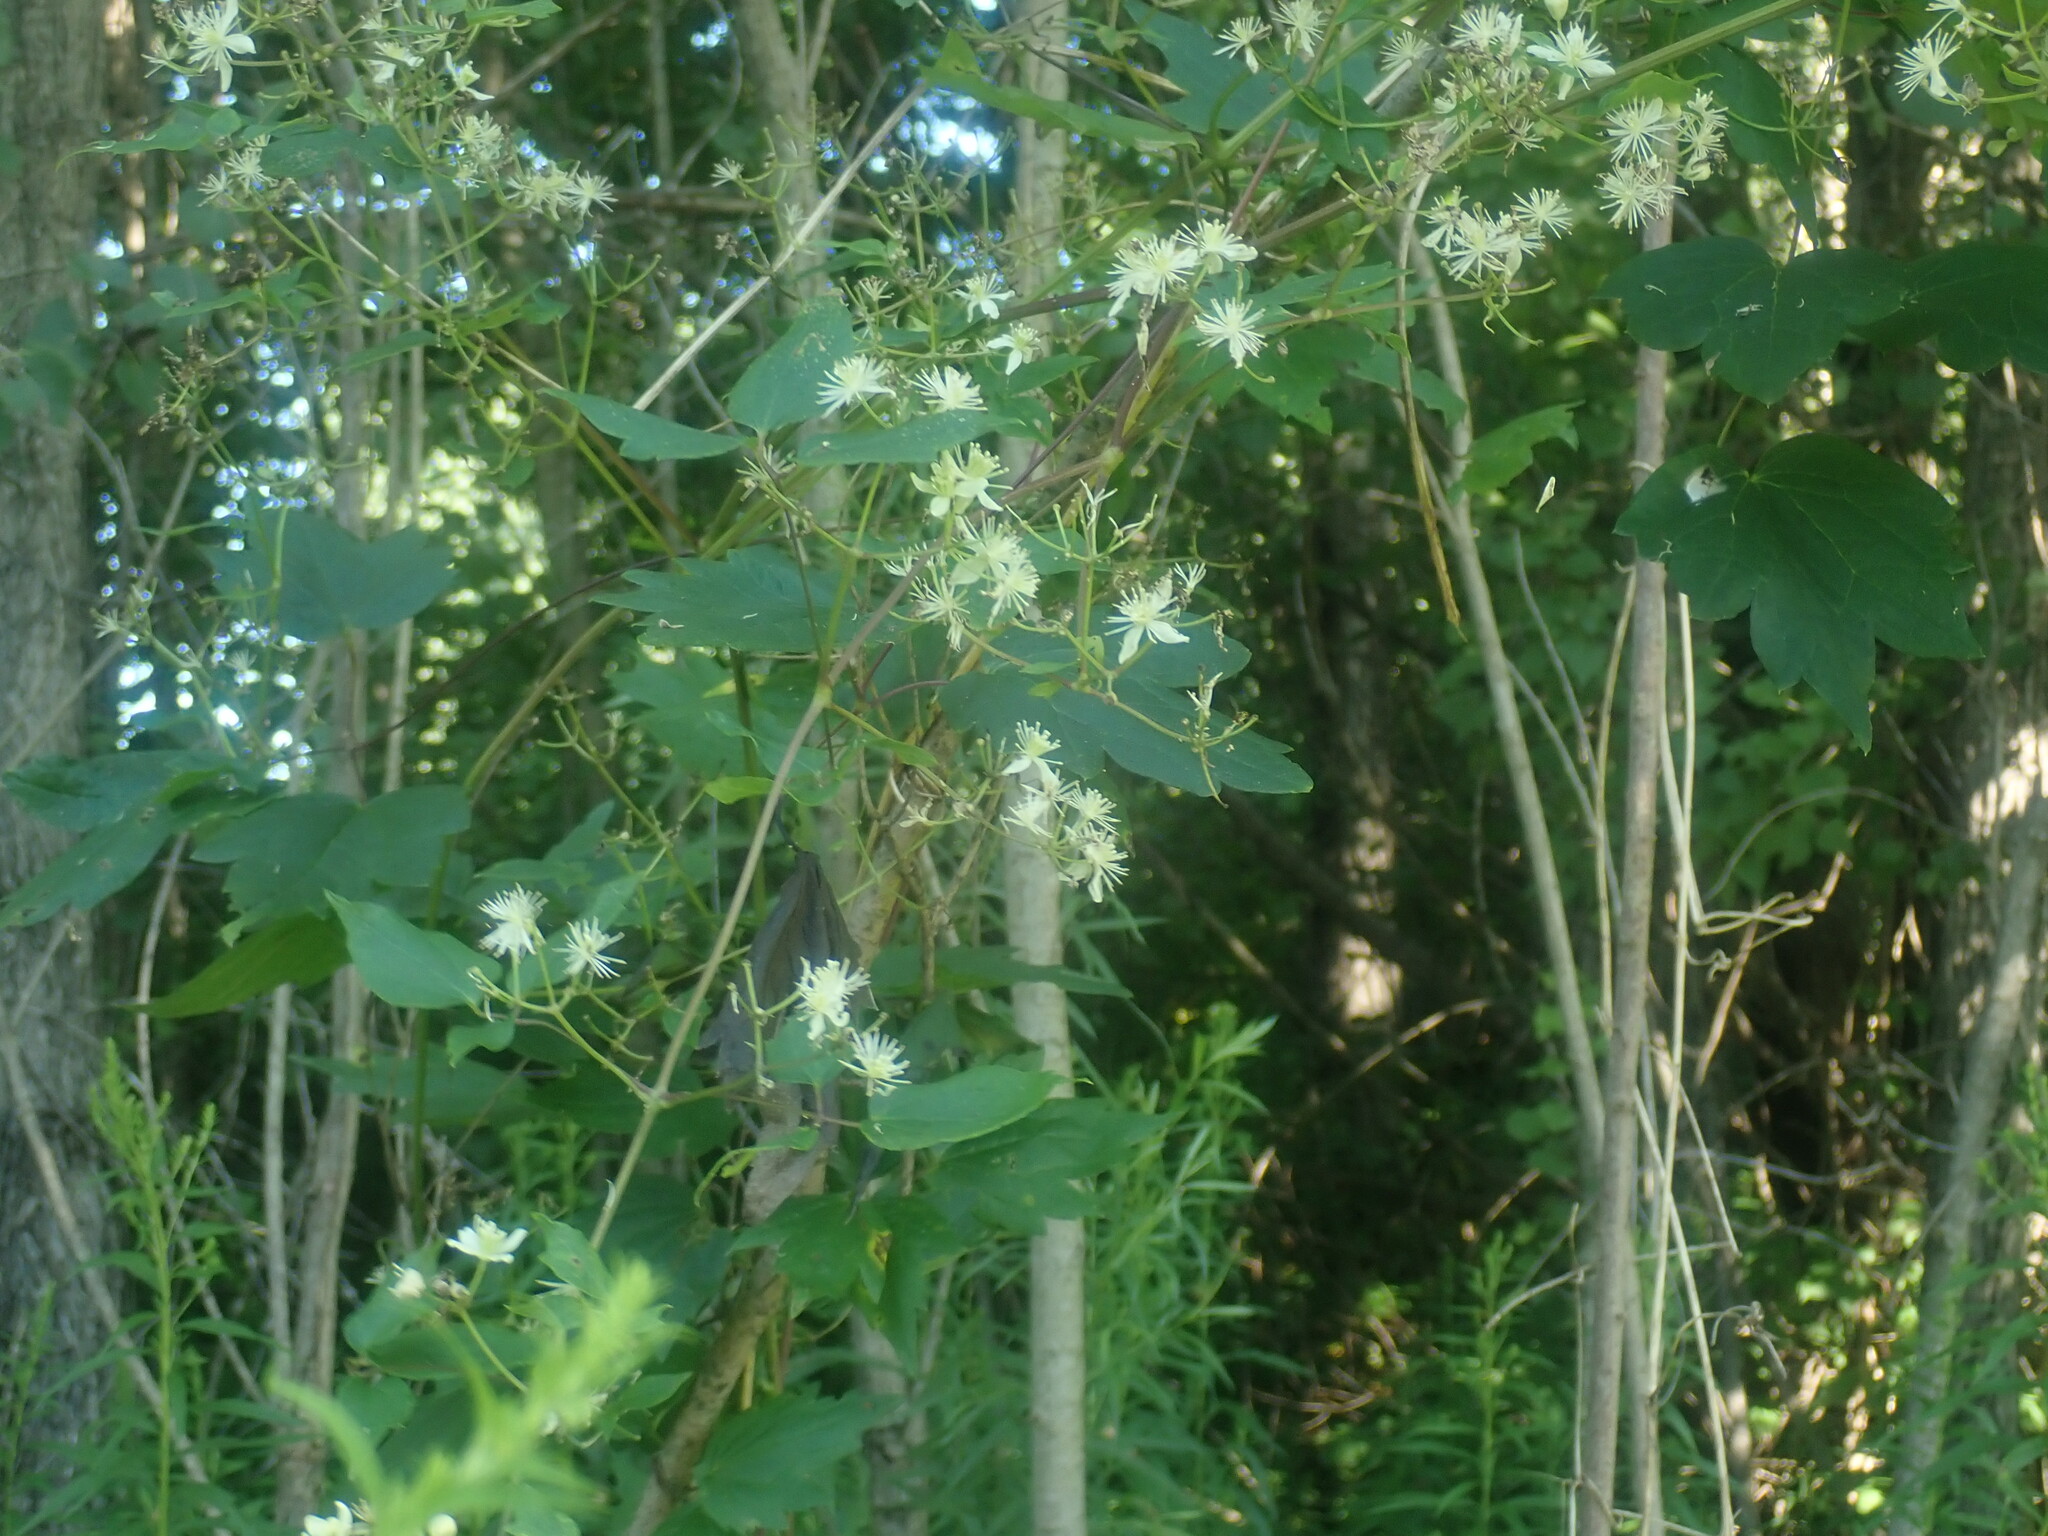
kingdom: Plantae
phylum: Tracheophyta
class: Magnoliopsida
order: Ranunculales
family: Ranunculaceae
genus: Clematis
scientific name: Clematis virginiana
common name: Virgin's-bower
